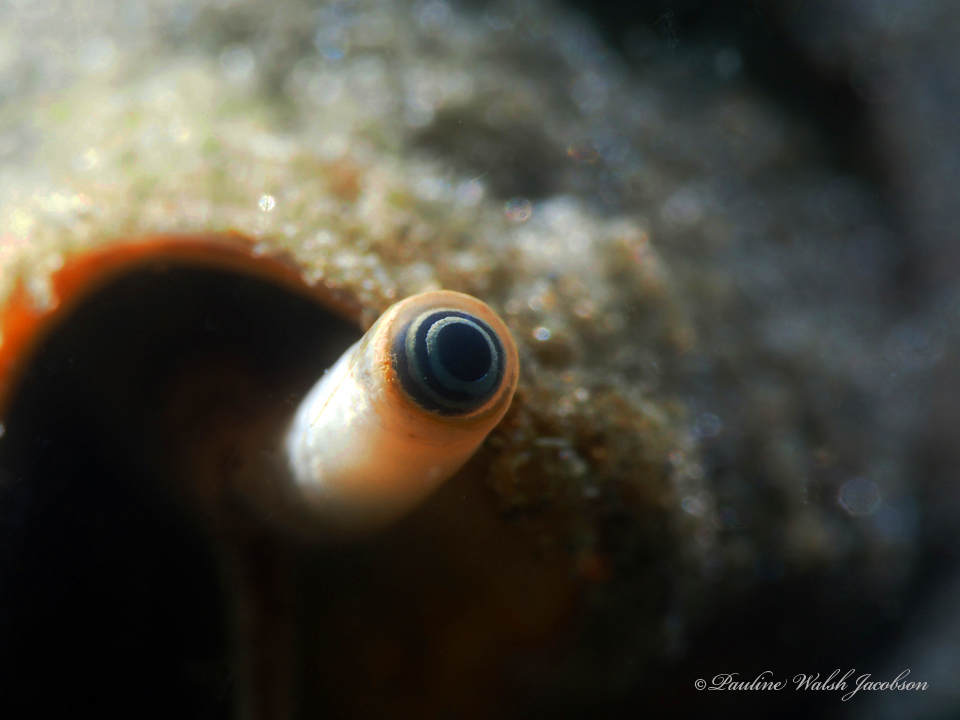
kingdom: Animalia
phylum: Mollusca
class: Gastropoda
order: Littorinimorpha
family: Strombidae
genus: Strombus
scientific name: Strombus alatus
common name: Florida fighting conch
